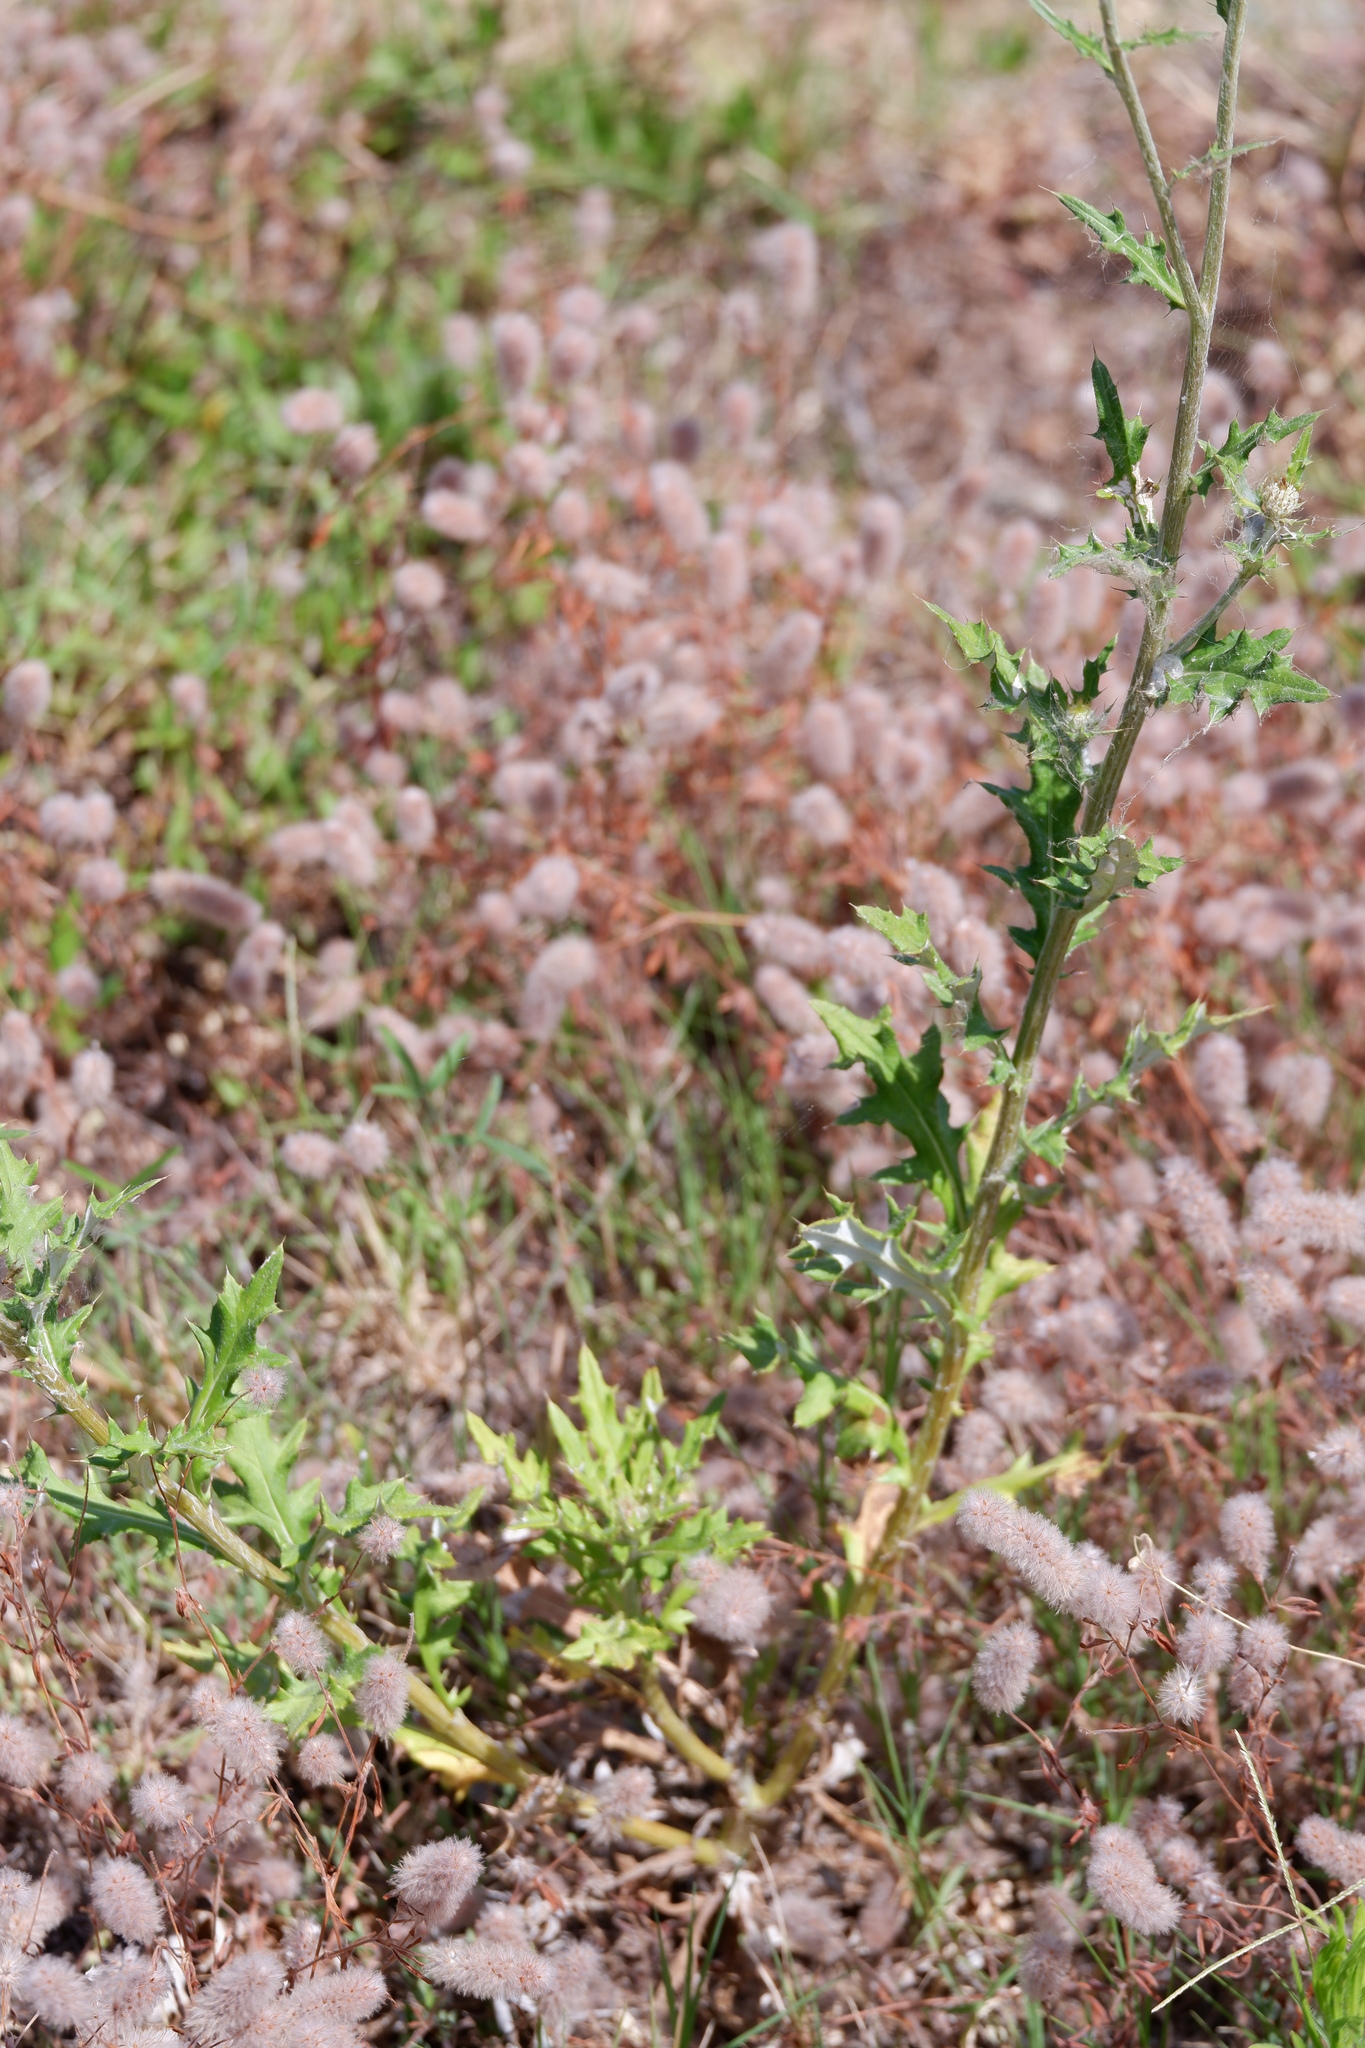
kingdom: Plantae
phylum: Tracheophyta
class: Magnoliopsida
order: Asterales
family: Asteraceae
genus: Cirsium
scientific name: Cirsium texanum
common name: Texas purple thistle
